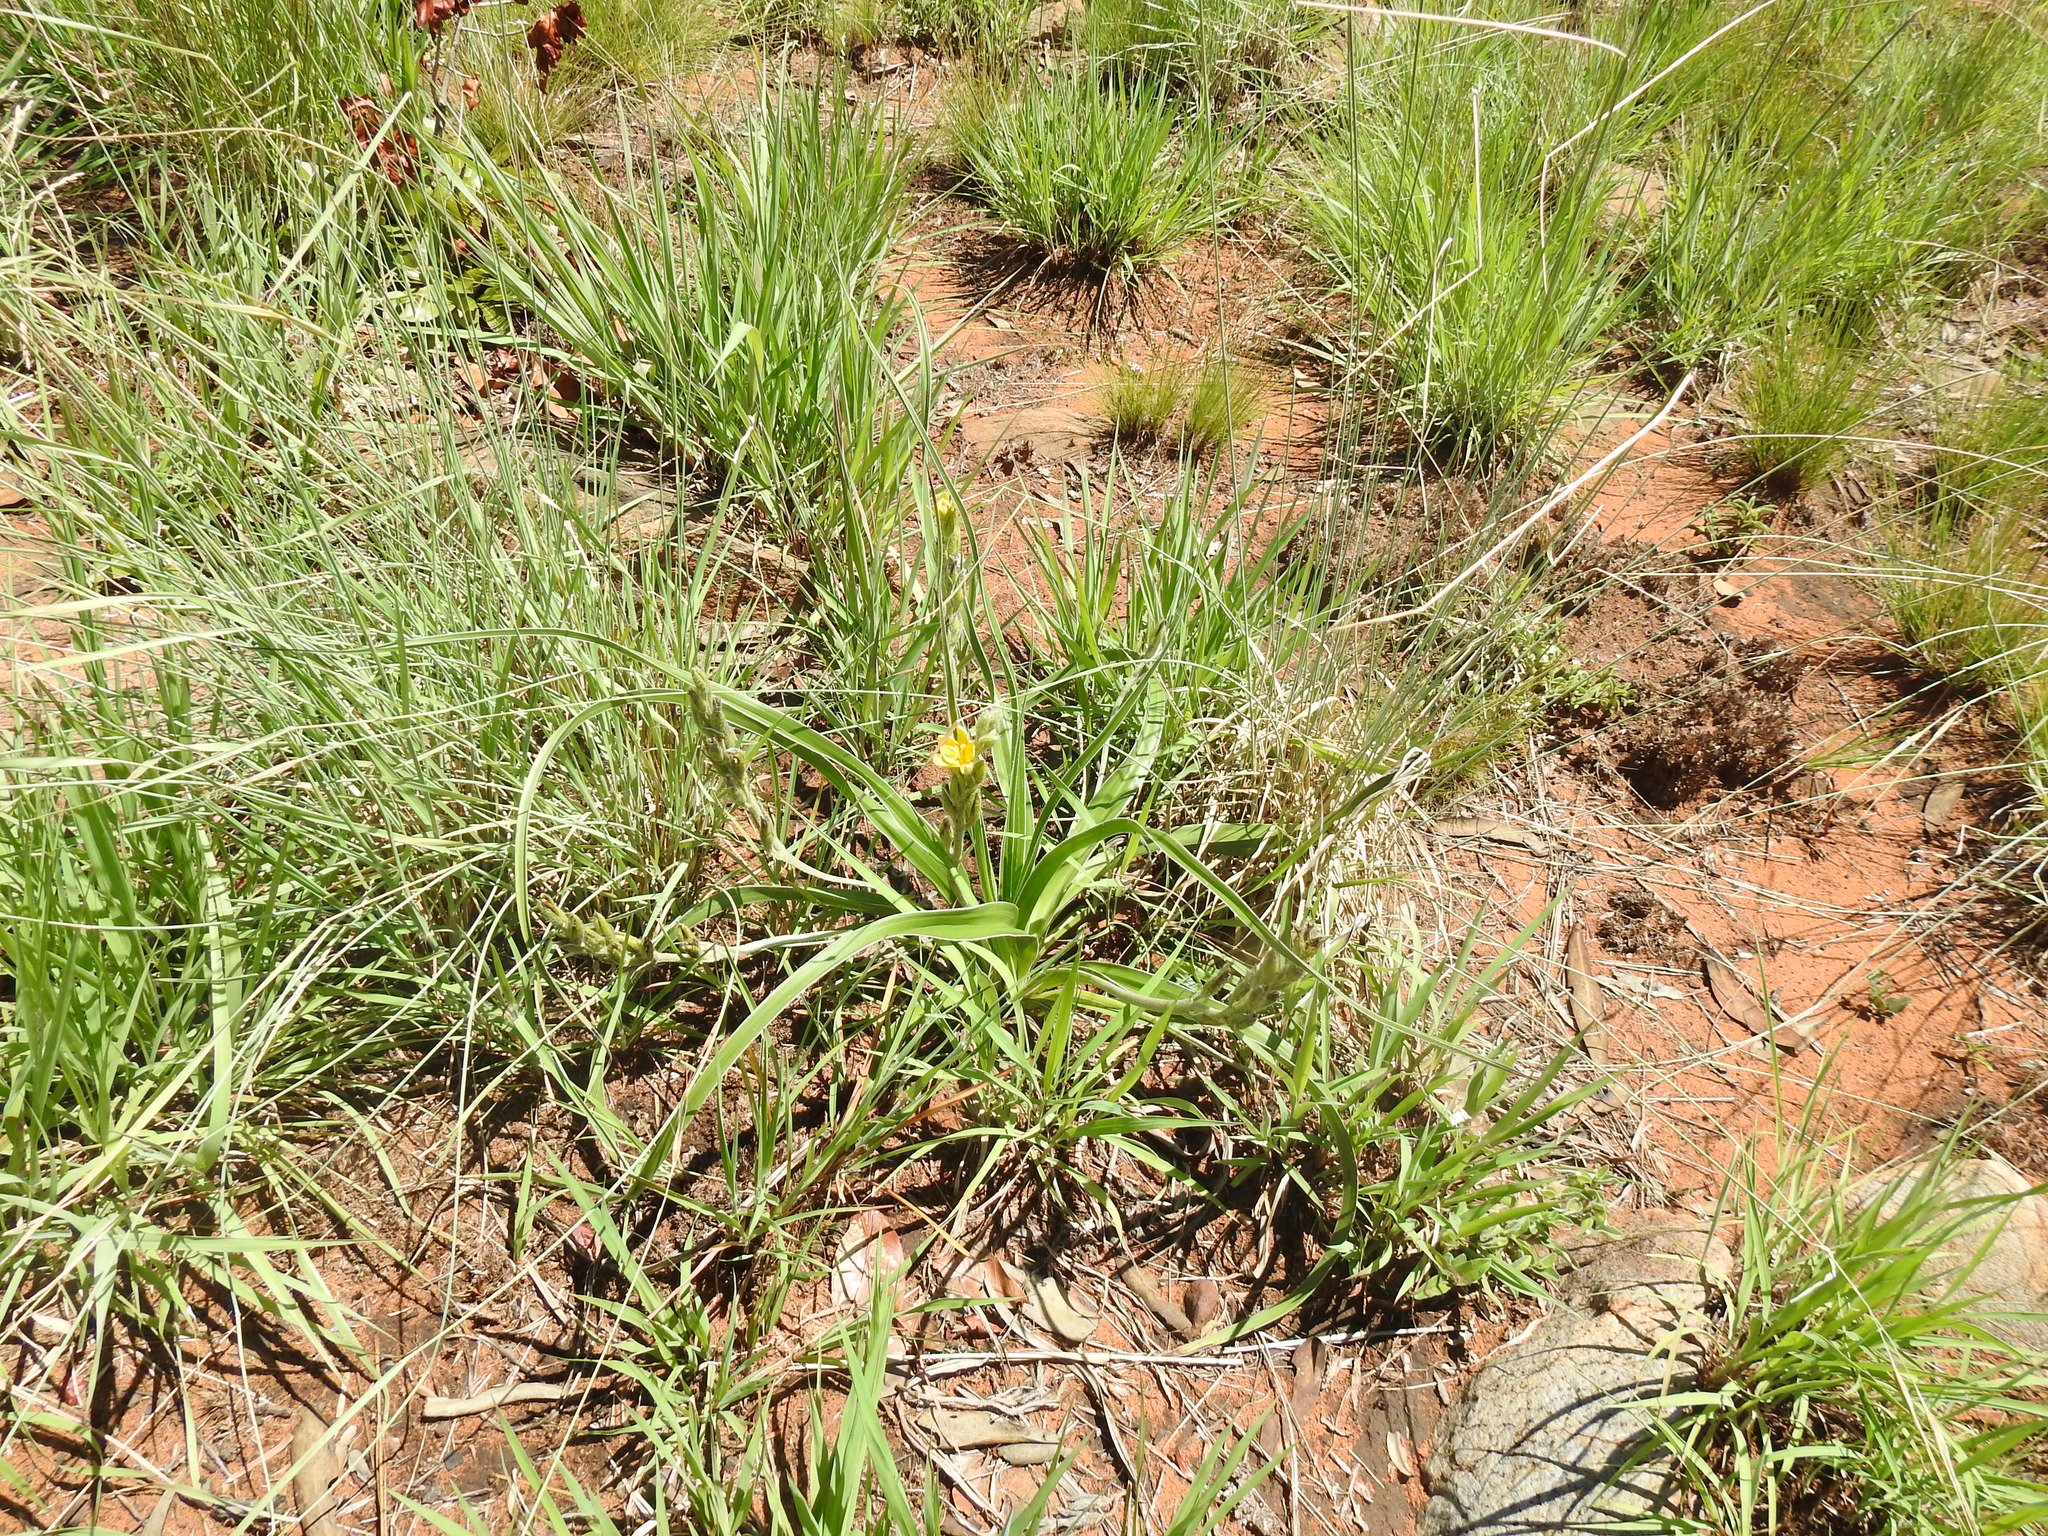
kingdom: Plantae
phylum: Tracheophyta
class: Liliopsida
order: Asparagales
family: Hypoxidaceae
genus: Hypoxis
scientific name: Hypoxis obtusa
